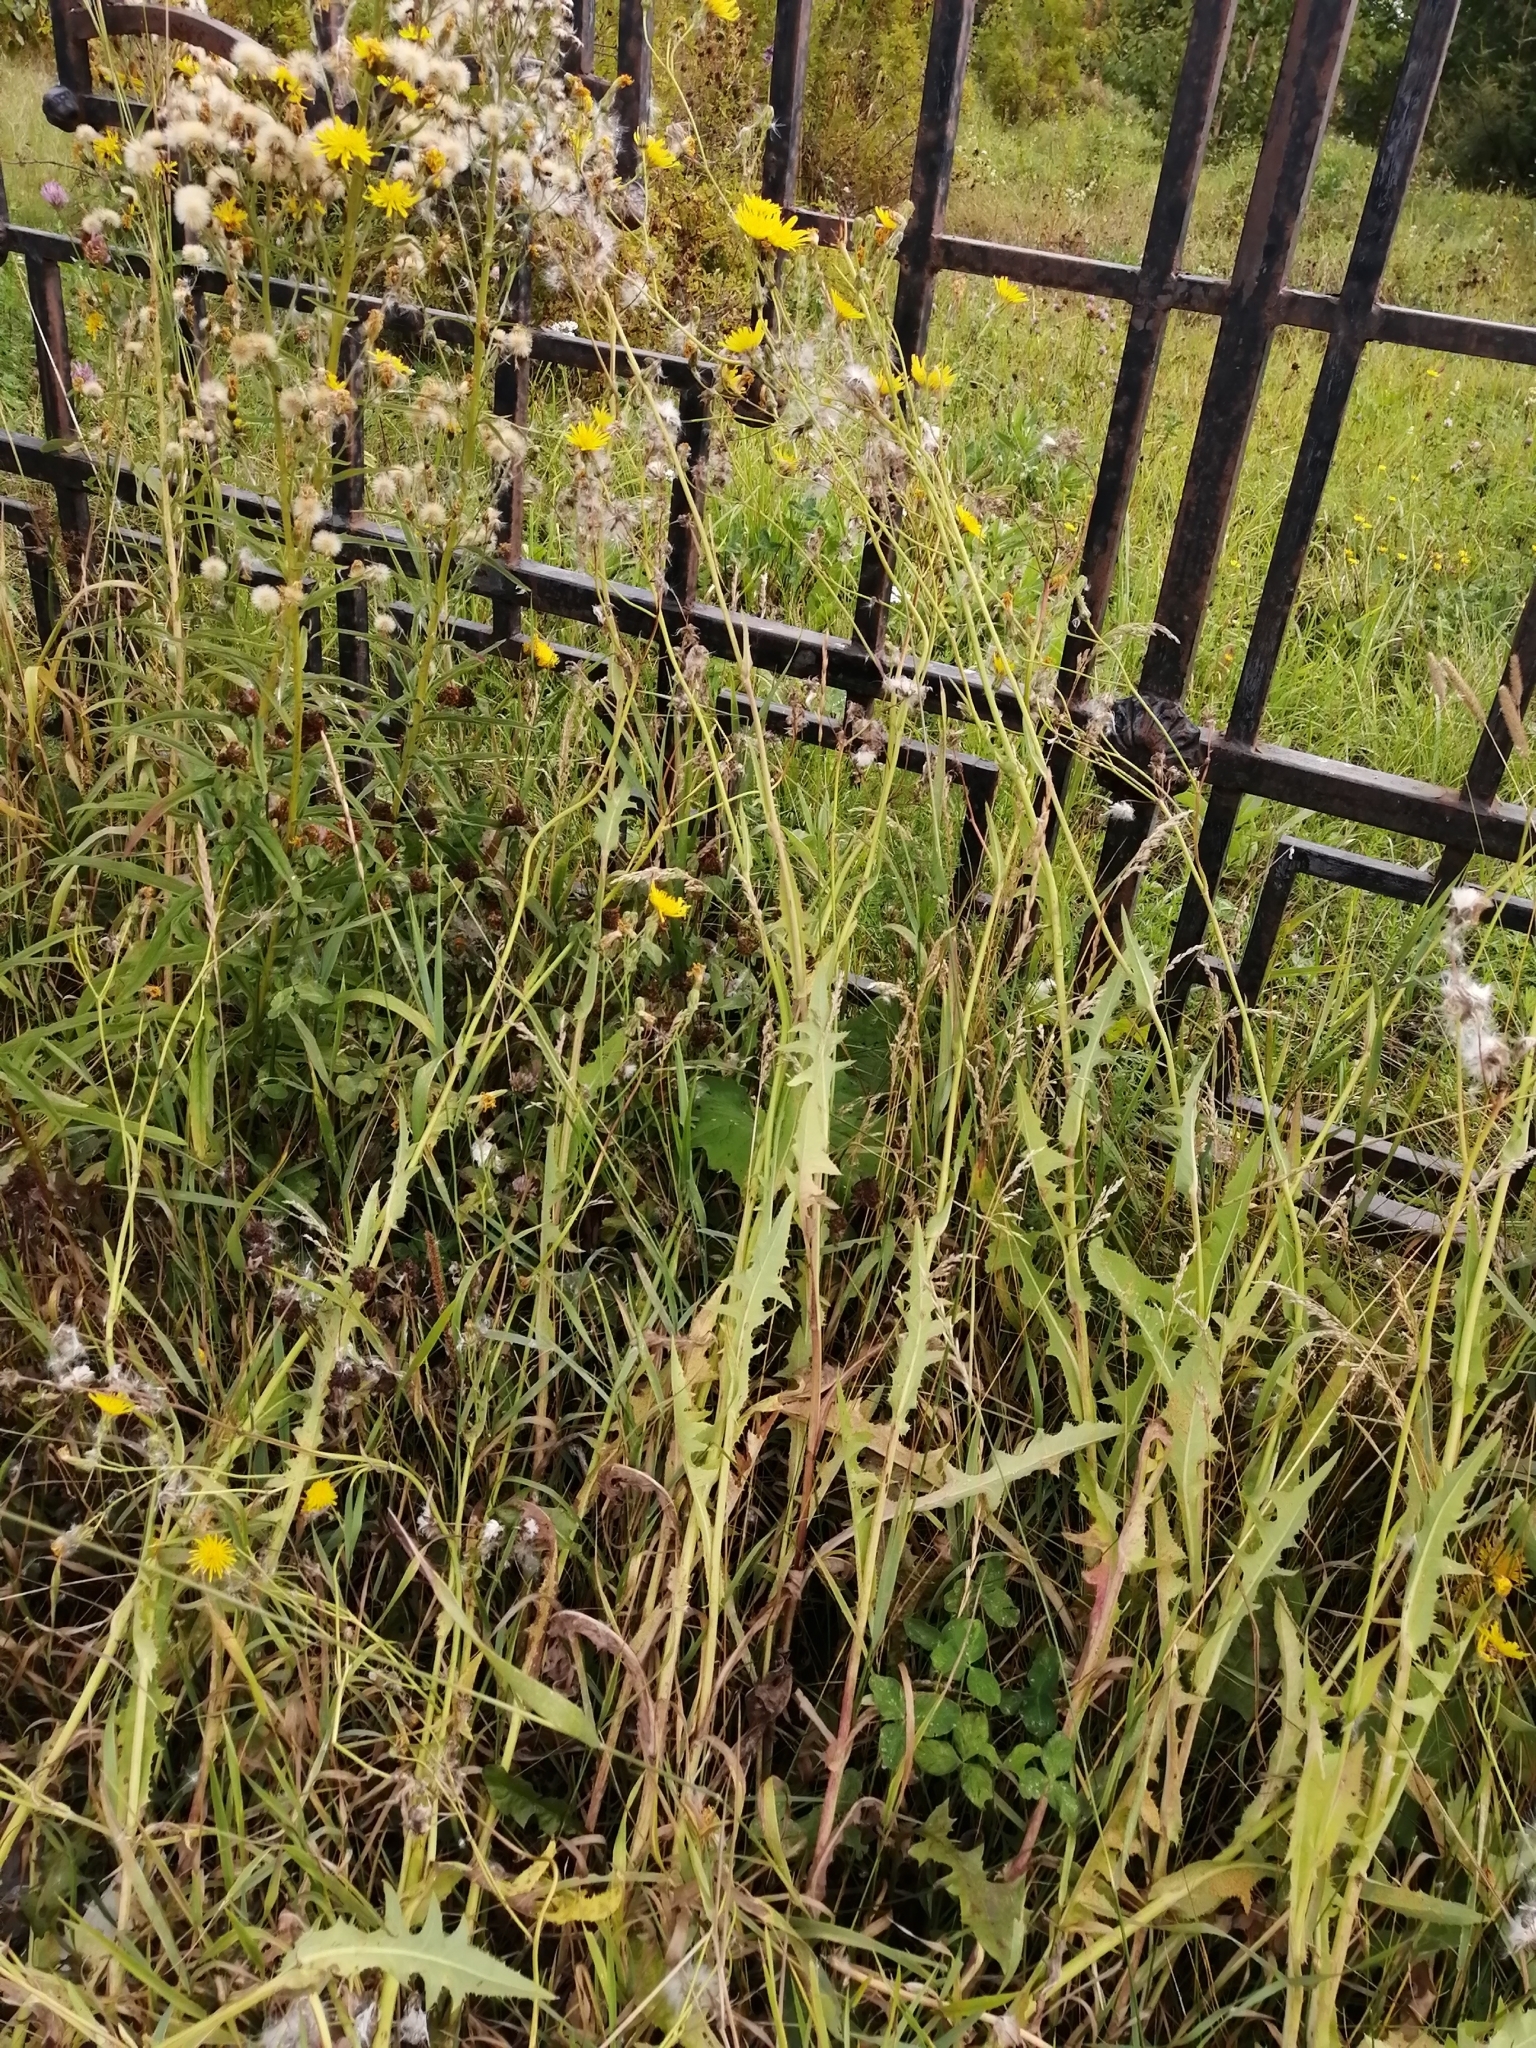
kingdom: Plantae
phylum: Tracheophyta
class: Magnoliopsida
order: Asterales
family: Asteraceae
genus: Sonchus
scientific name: Sonchus arvensis
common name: Perennial sow-thistle
